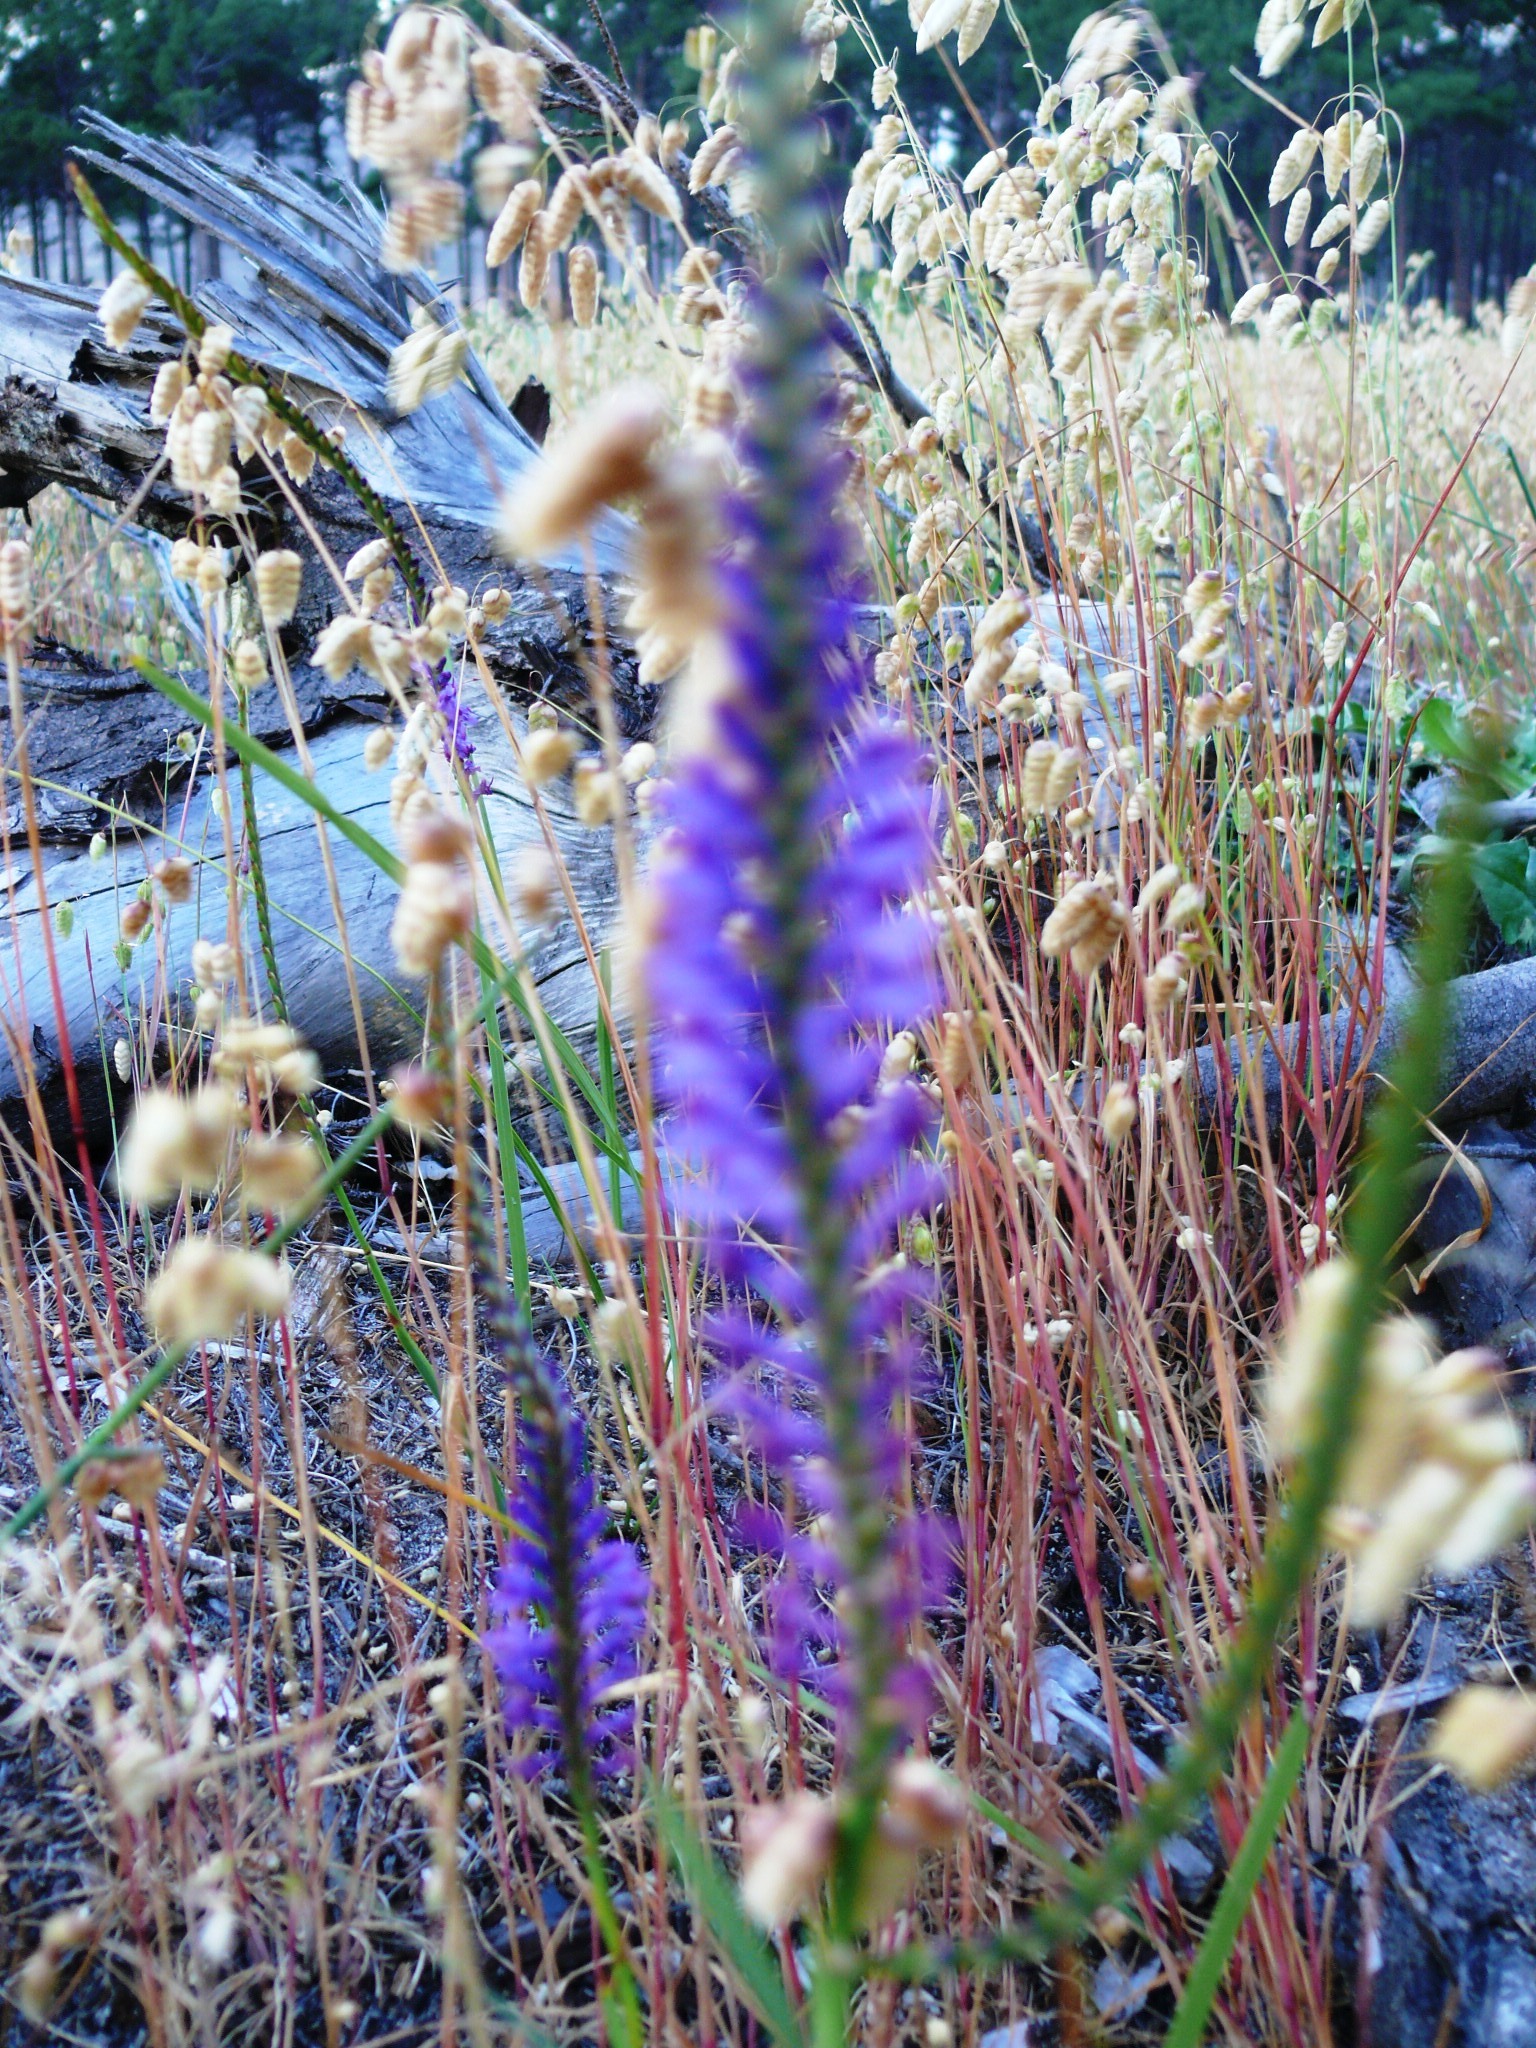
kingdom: Plantae
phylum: Tracheophyta
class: Liliopsida
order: Asparagales
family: Iridaceae
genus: Micranthus
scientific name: Micranthus alopecuroides
